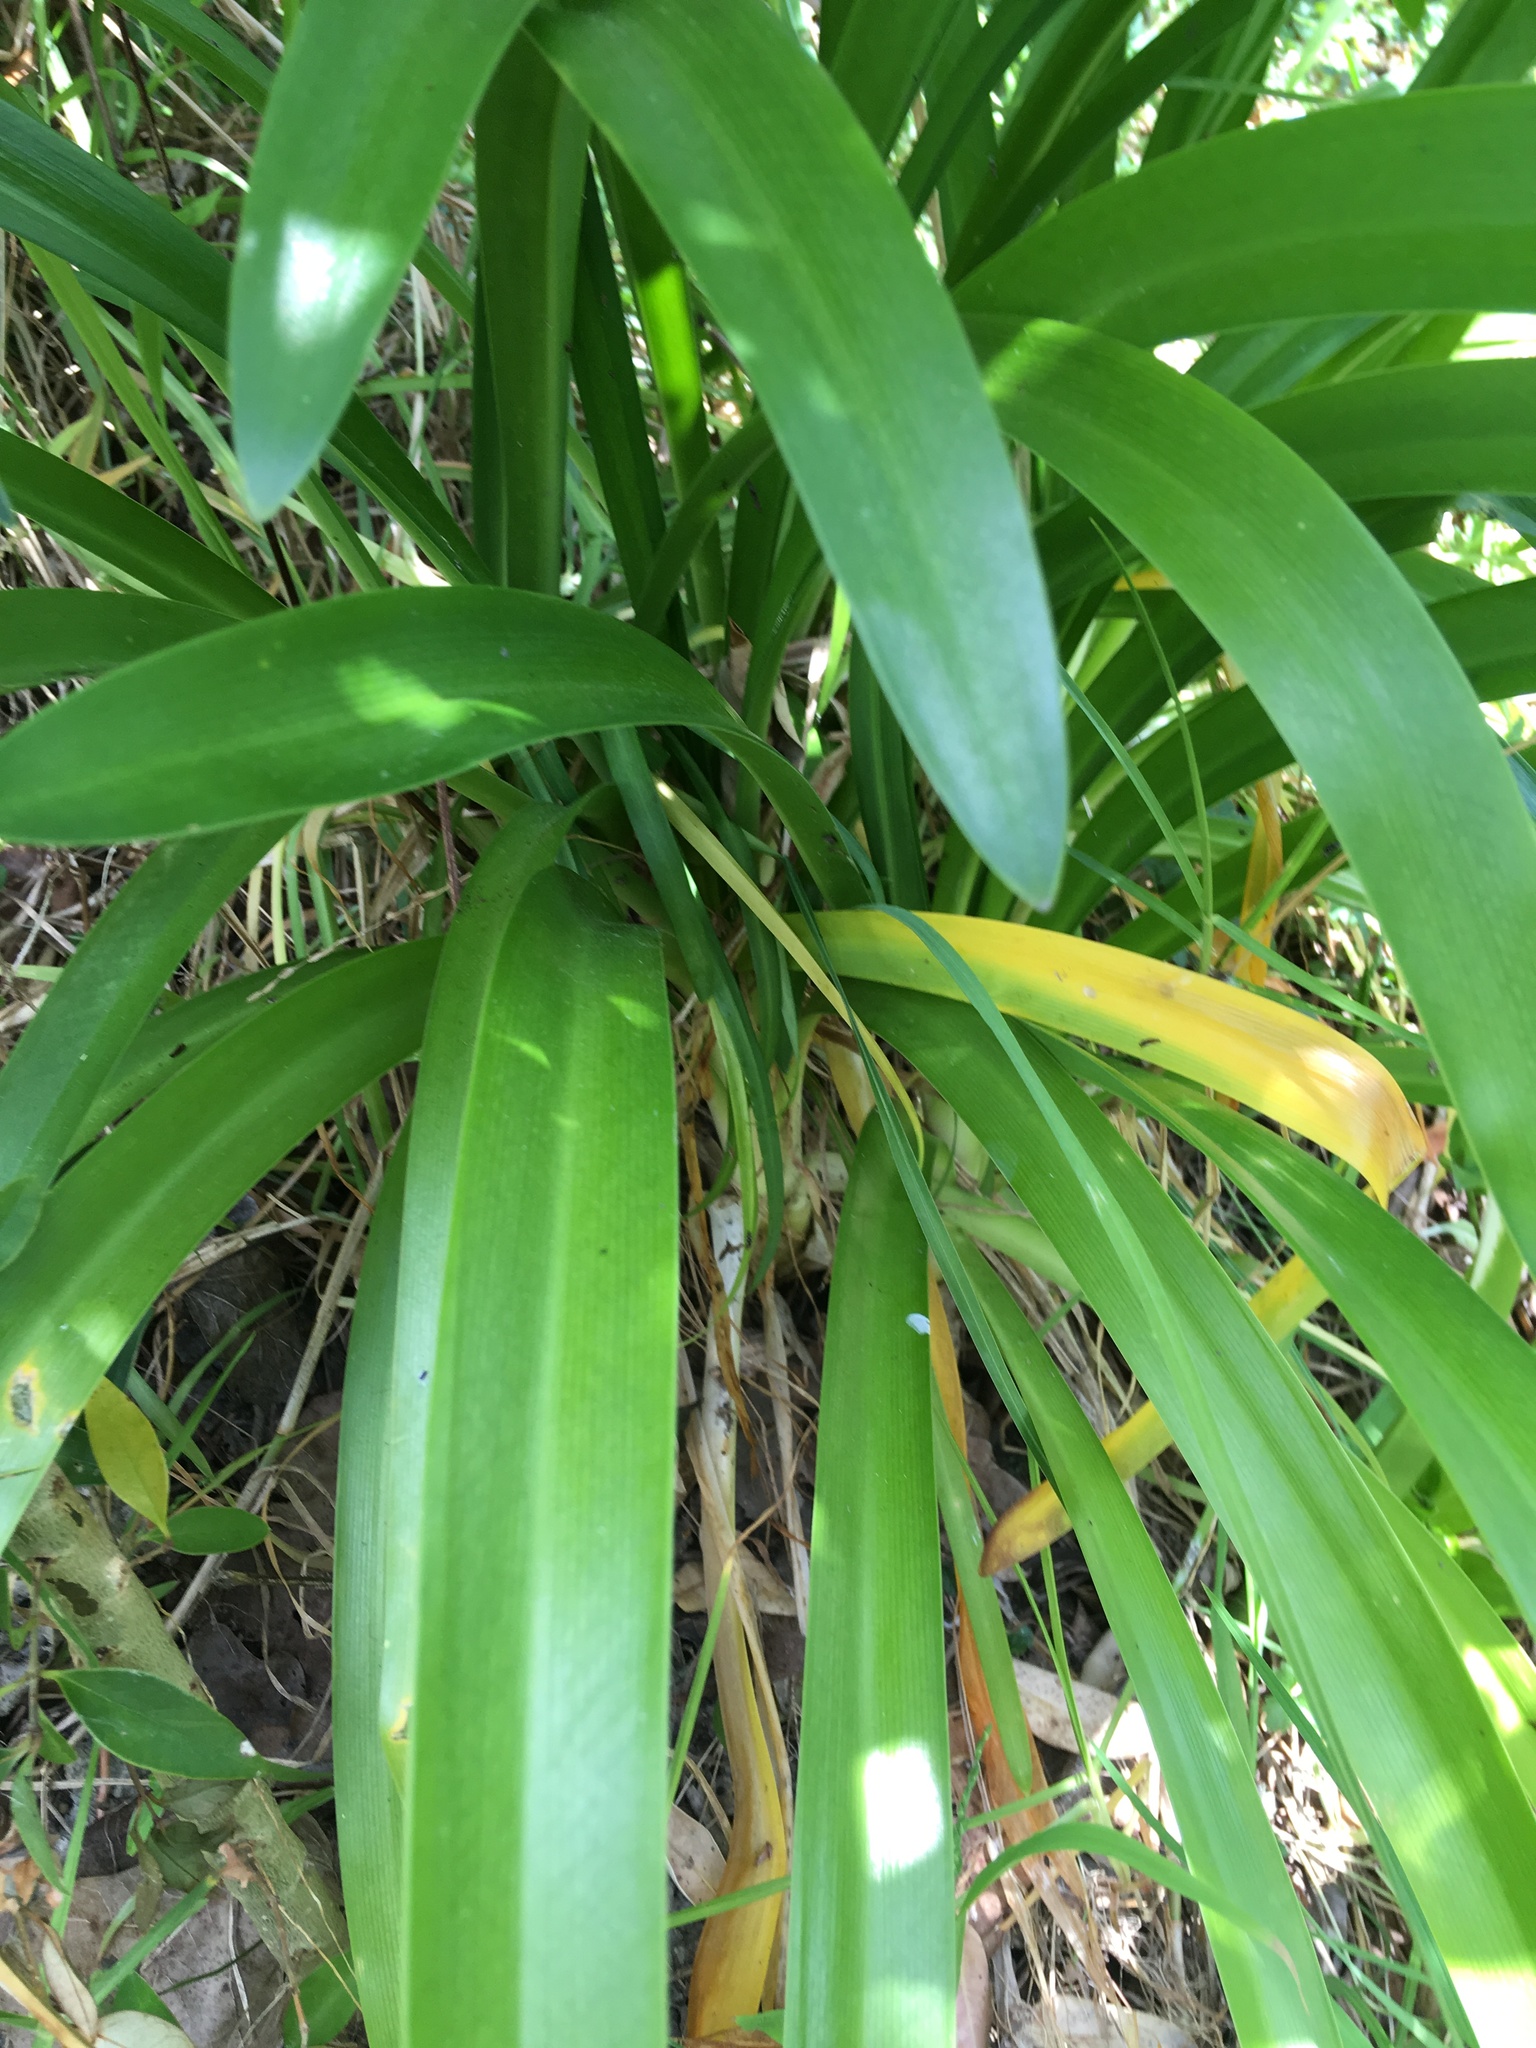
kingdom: Plantae
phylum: Tracheophyta
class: Liliopsida
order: Asparagales
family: Amaryllidaceae
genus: Agapanthus
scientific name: Agapanthus praecox
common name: African-lily
